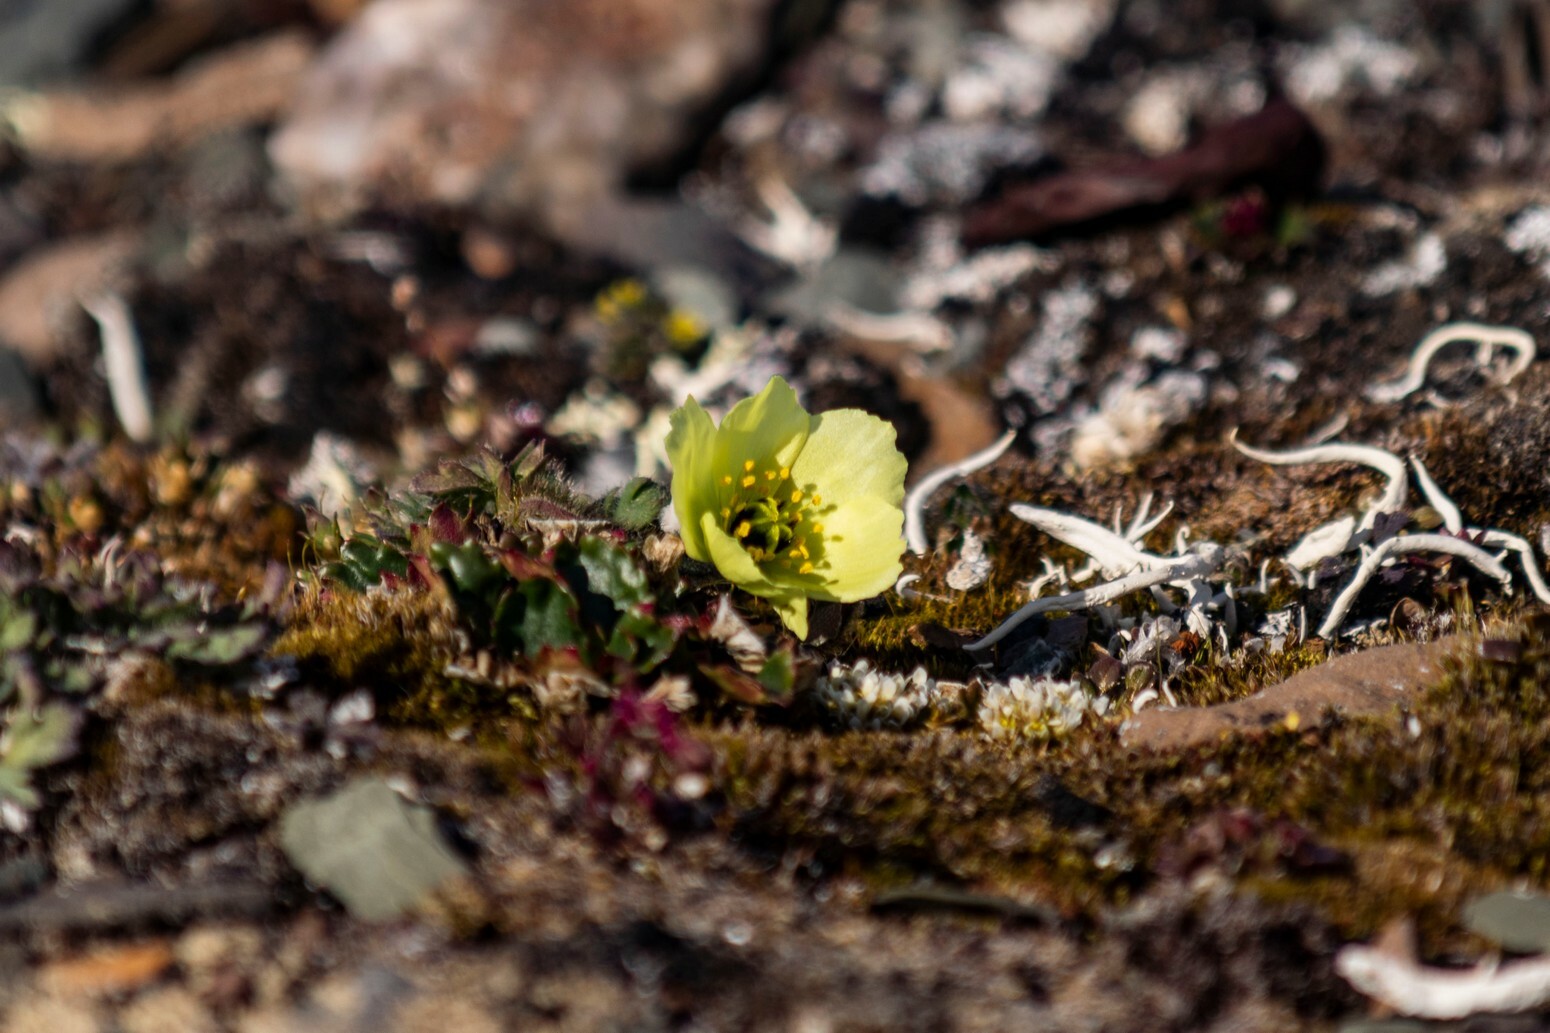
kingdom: Plantae
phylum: Tracheophyta
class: Magnoliopsida
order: Ranunculales
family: Papaveraceae
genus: Papaver
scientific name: Papaver radicatum
